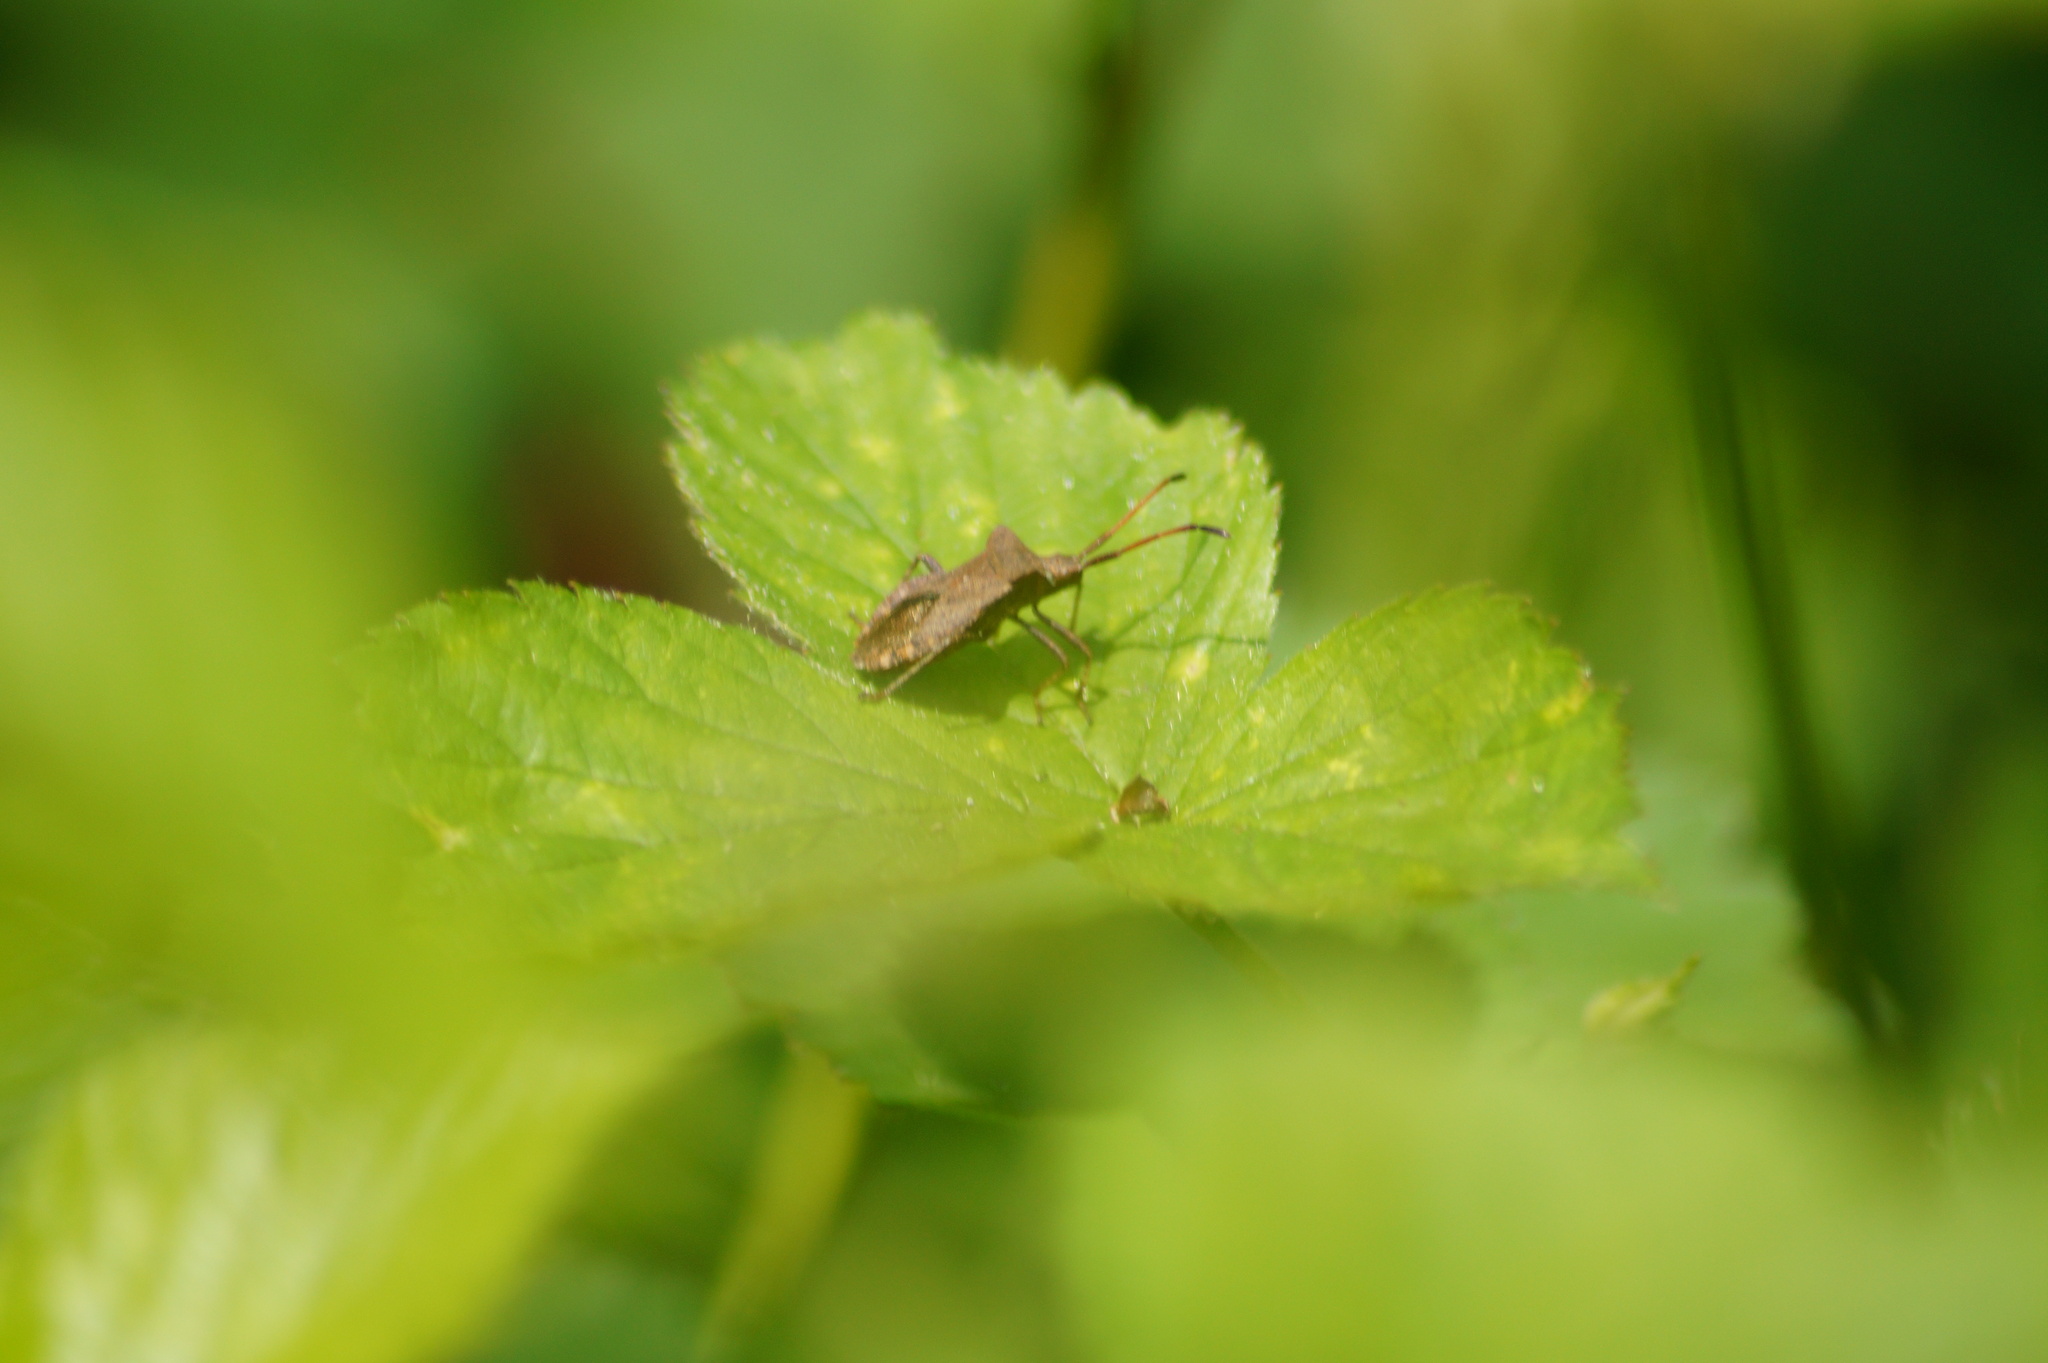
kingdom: Animalia
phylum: Arthropoda
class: Insecta
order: Hemiptera
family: Coreidae
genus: Coreus
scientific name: Coreus marginatus
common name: Dock bug
